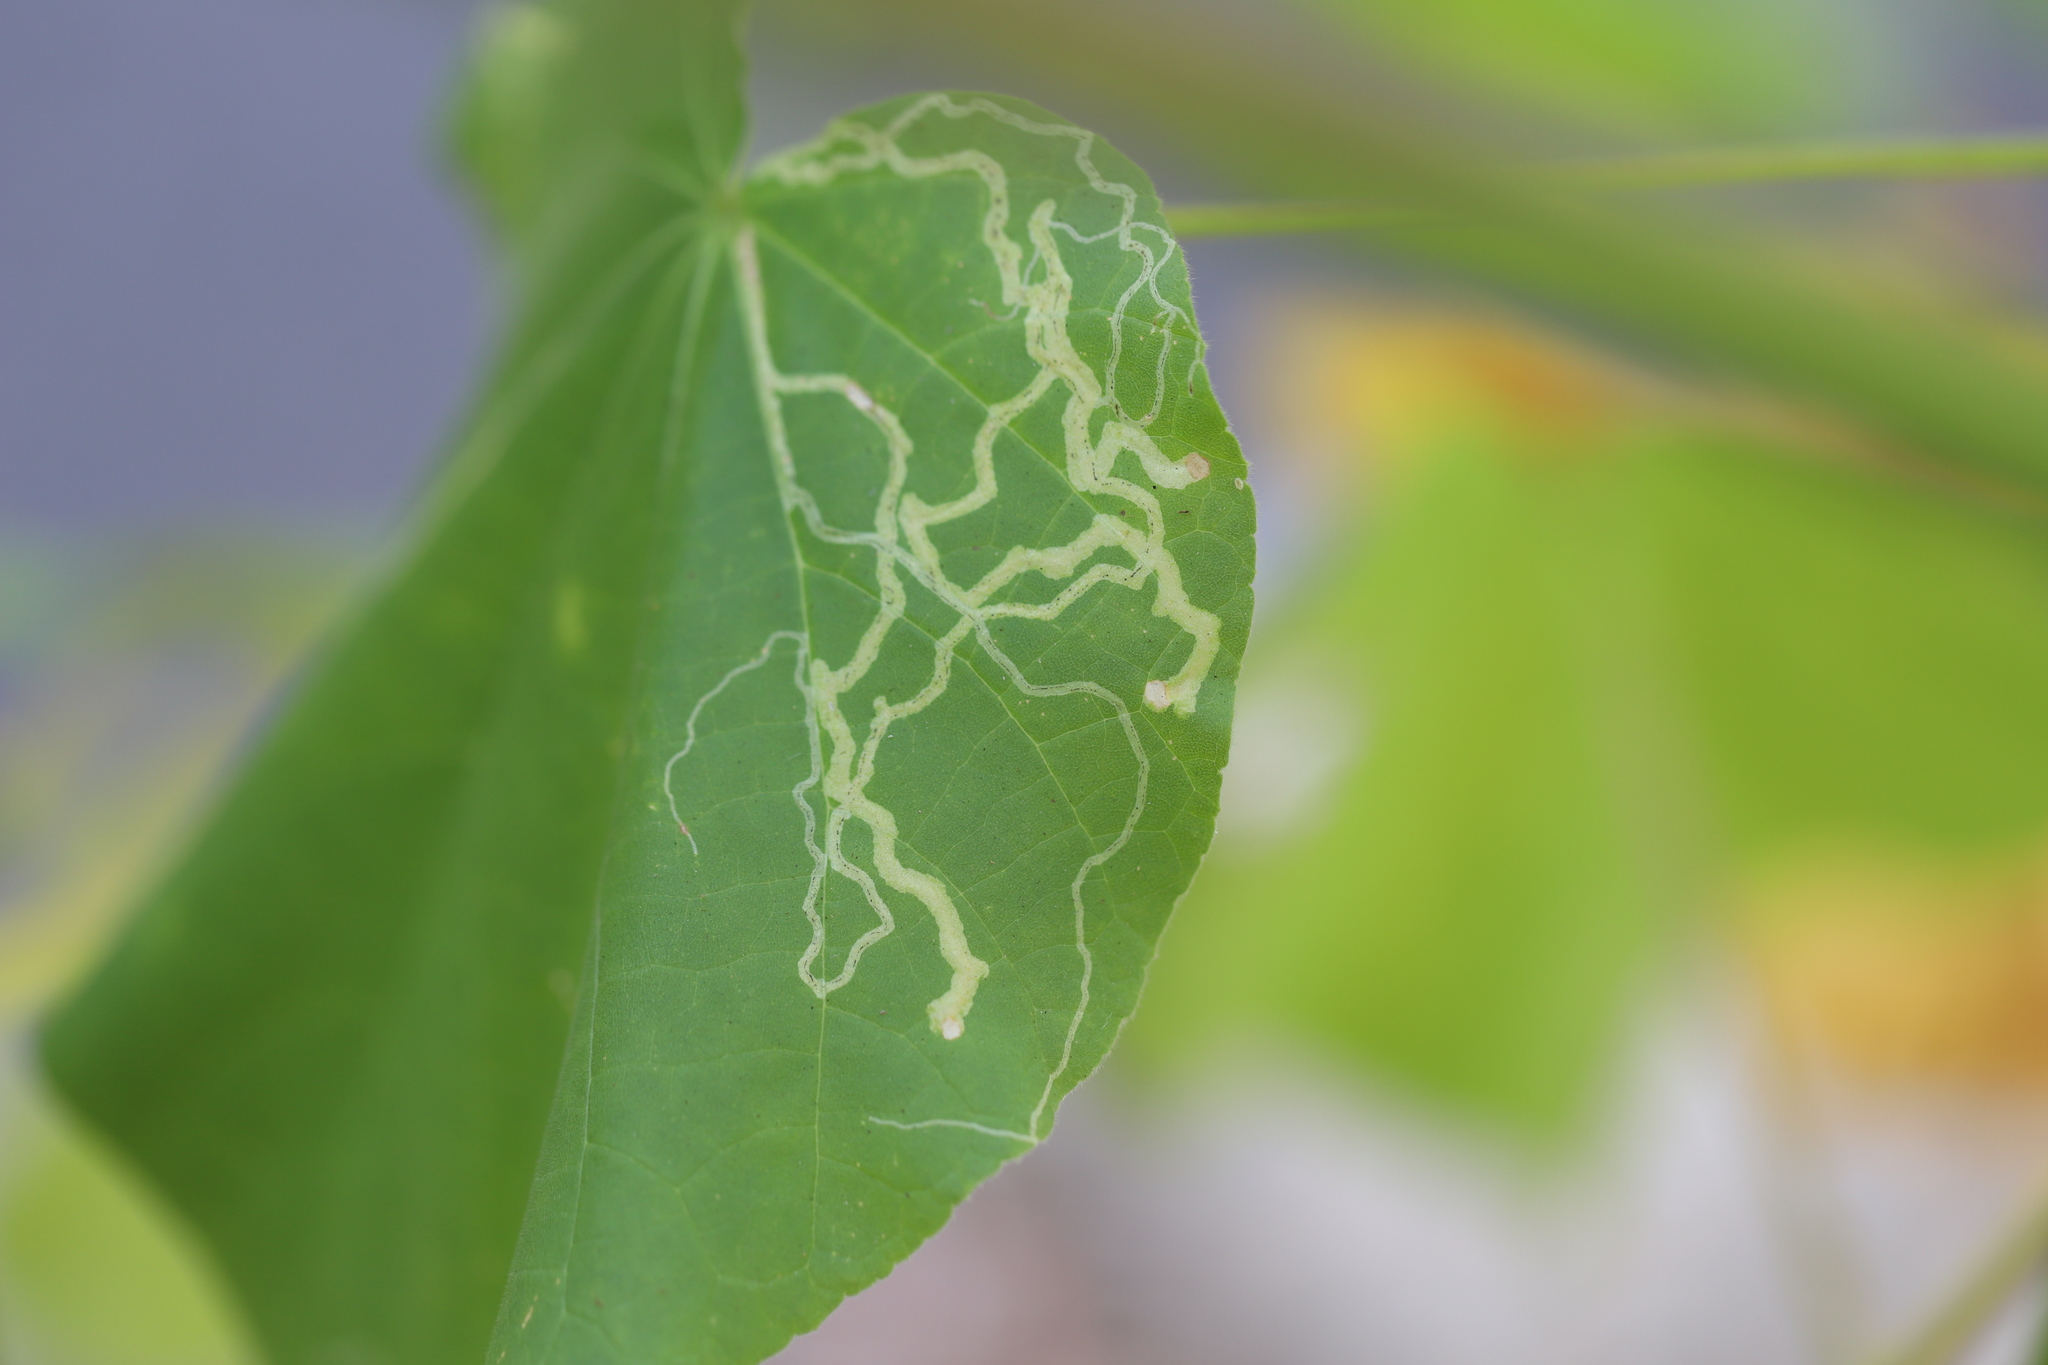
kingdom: Animalia
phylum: Arthropoda
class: Insecta
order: Diptera
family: Agromyzidae
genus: Calycomyza
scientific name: Calycomyza malvae
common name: Mallow leaf miner
